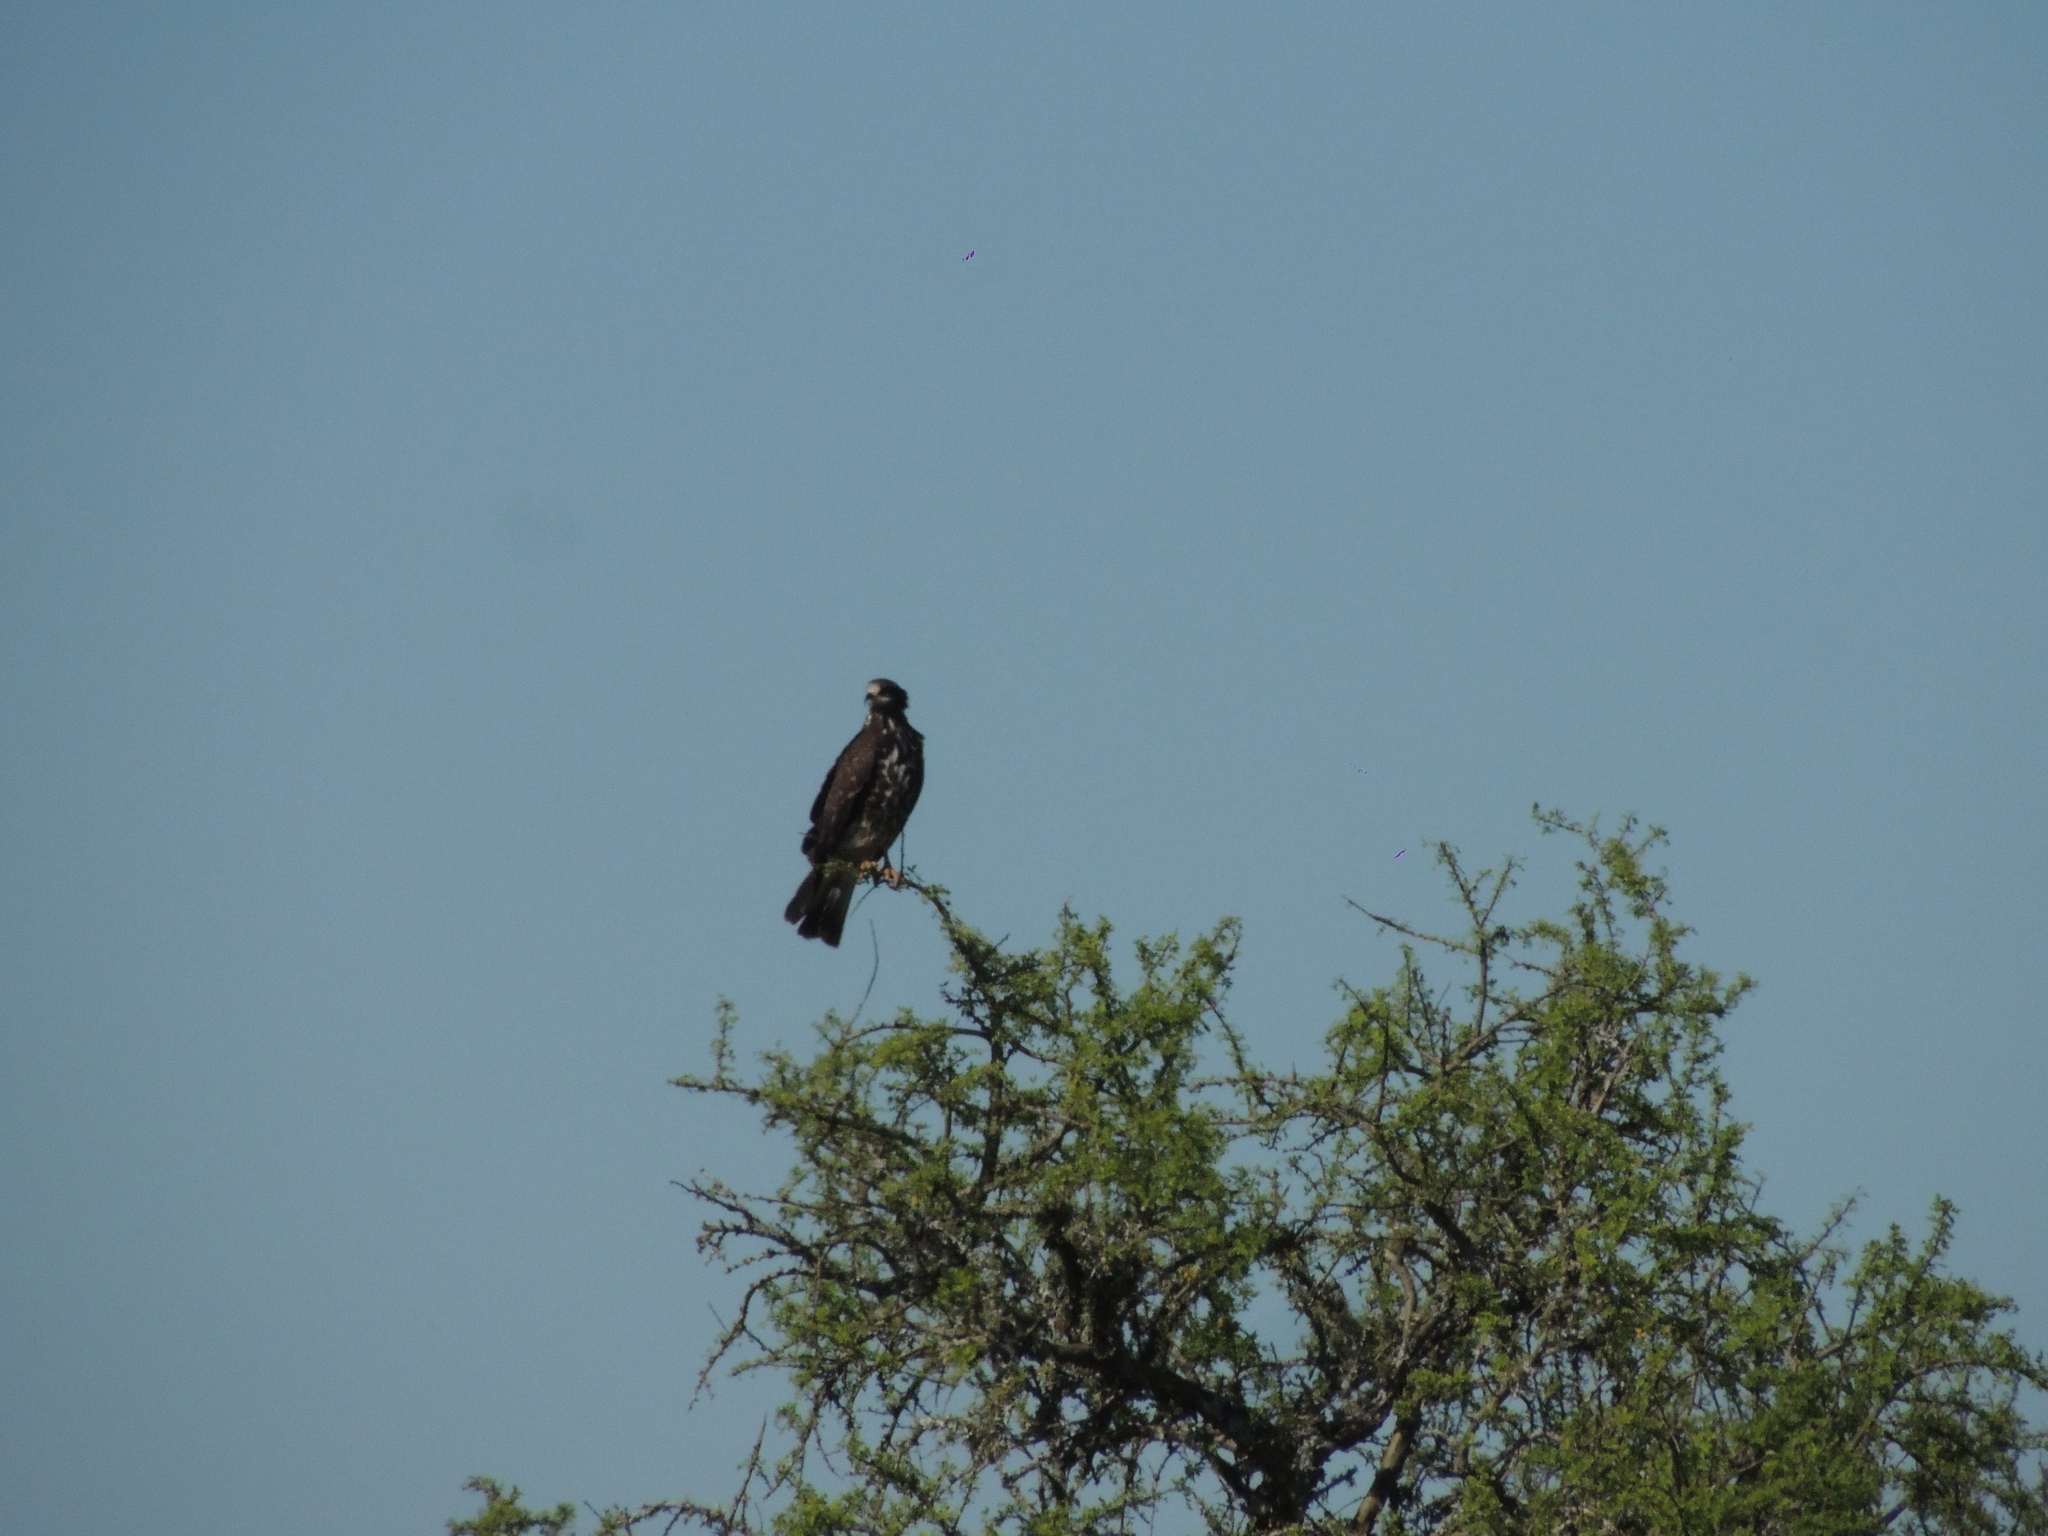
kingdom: Animalia
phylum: Chordata
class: Aves
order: Accipitriformes
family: Accipitridae
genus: Rostrhamus
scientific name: Rostrhamus sociabilis
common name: Snail kite
